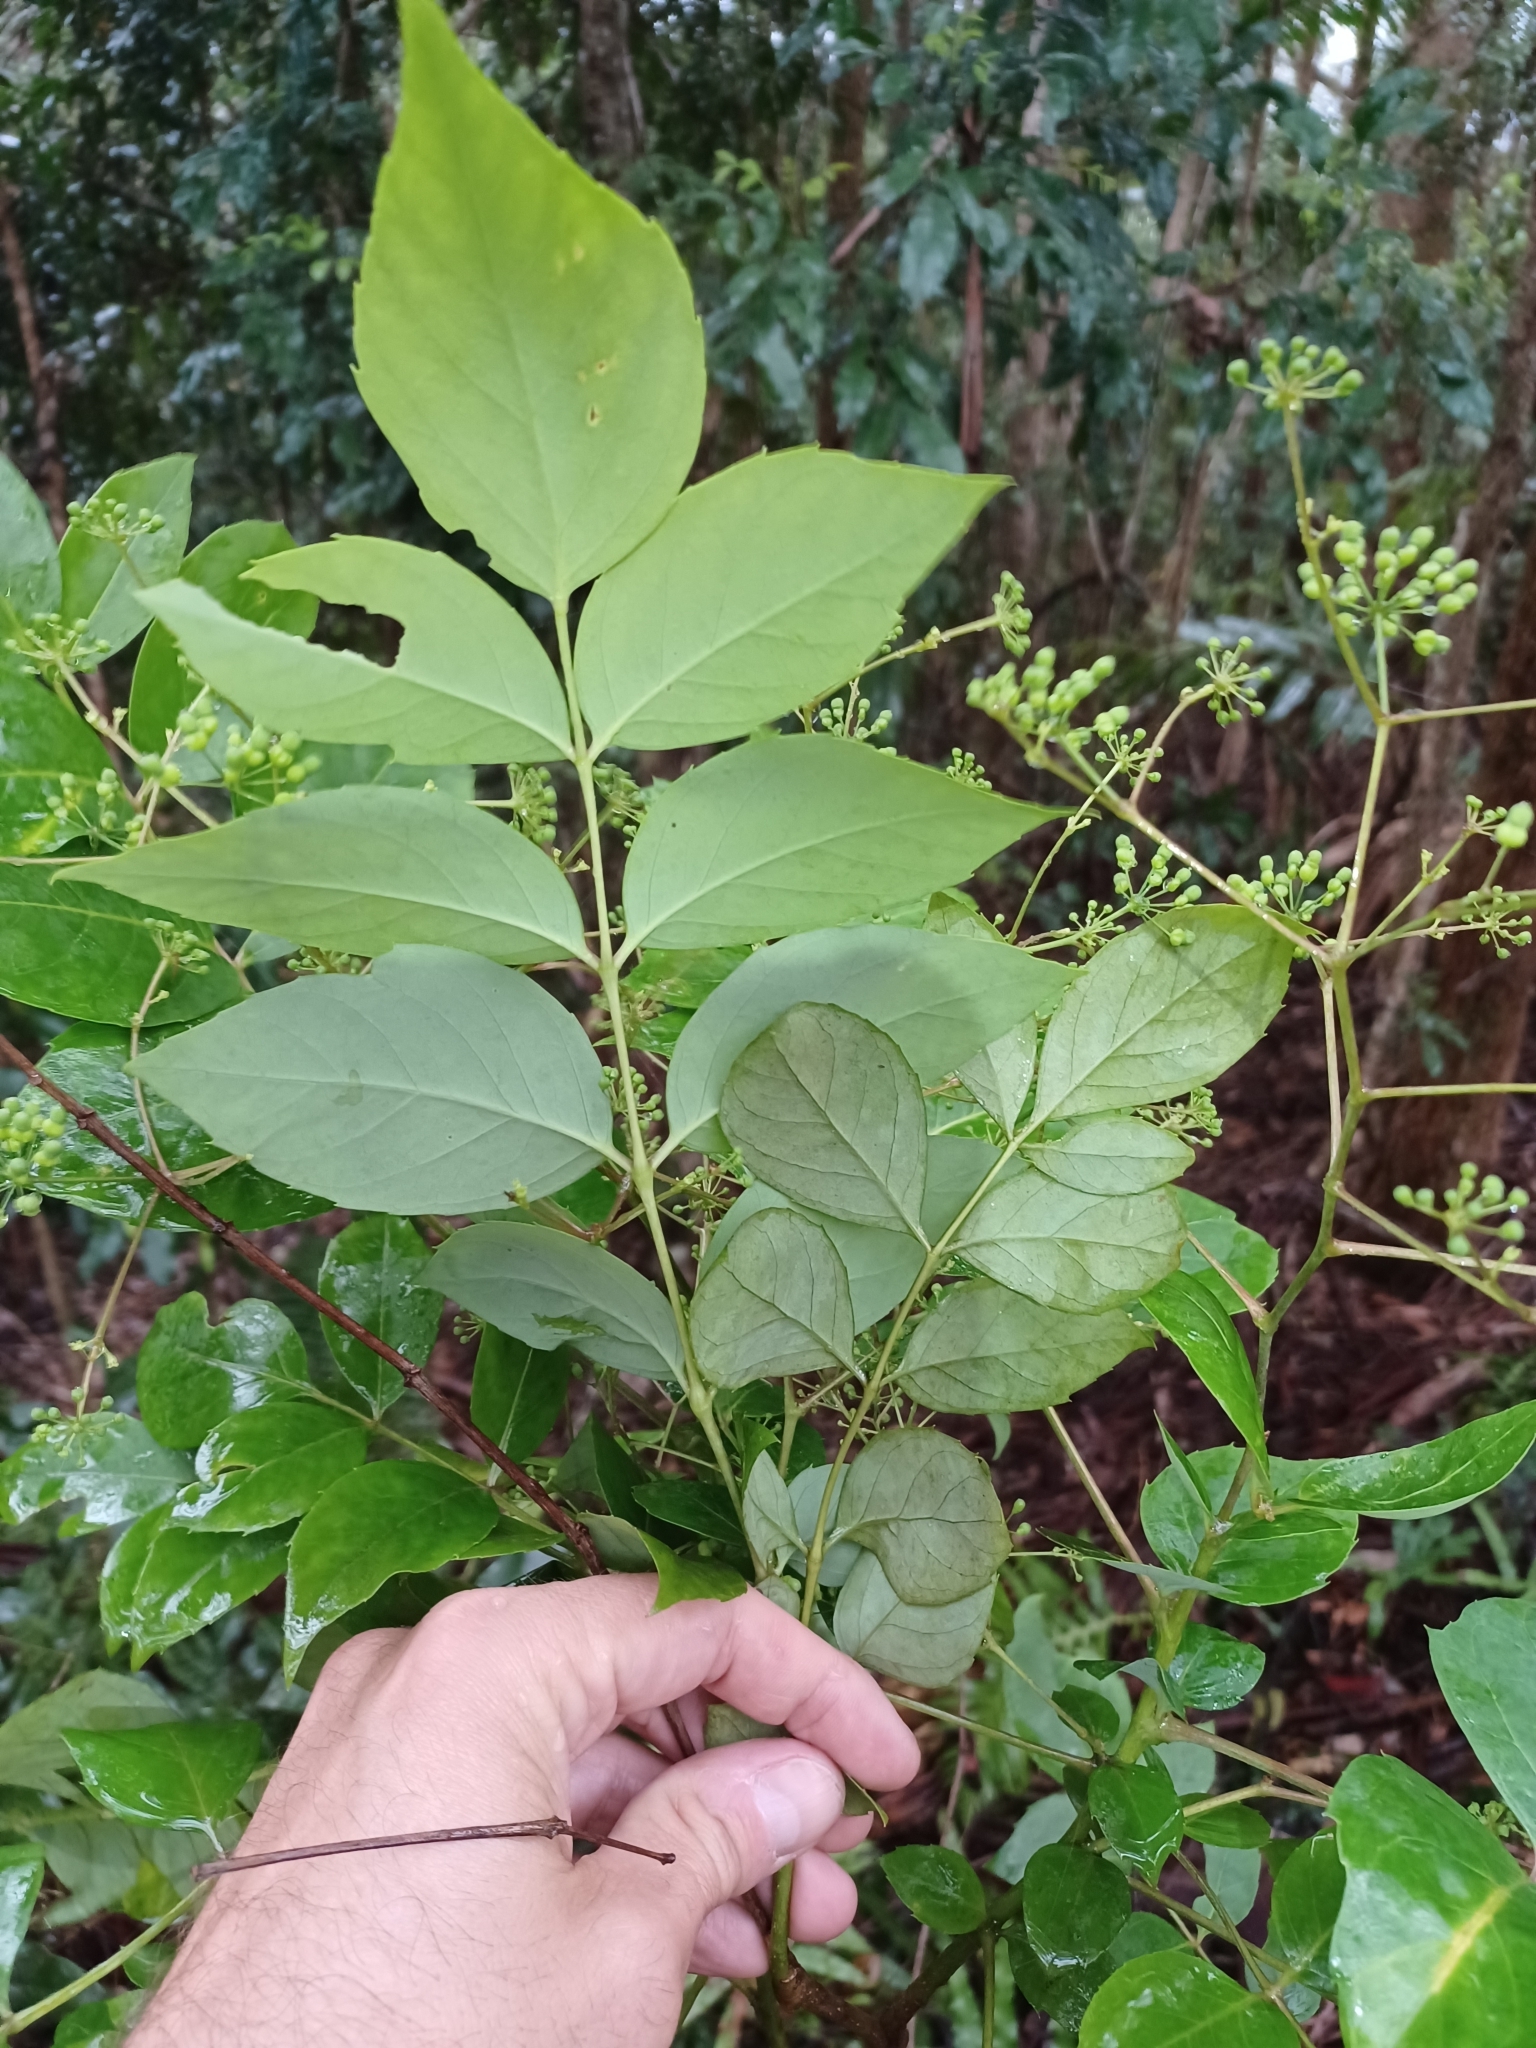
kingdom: Plantae
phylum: Tracheophyta
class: Magnoliopsida
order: Apiales
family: Araliaceae
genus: Polyscias
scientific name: Polyscias sambucifolia
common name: Elderberry-ash
